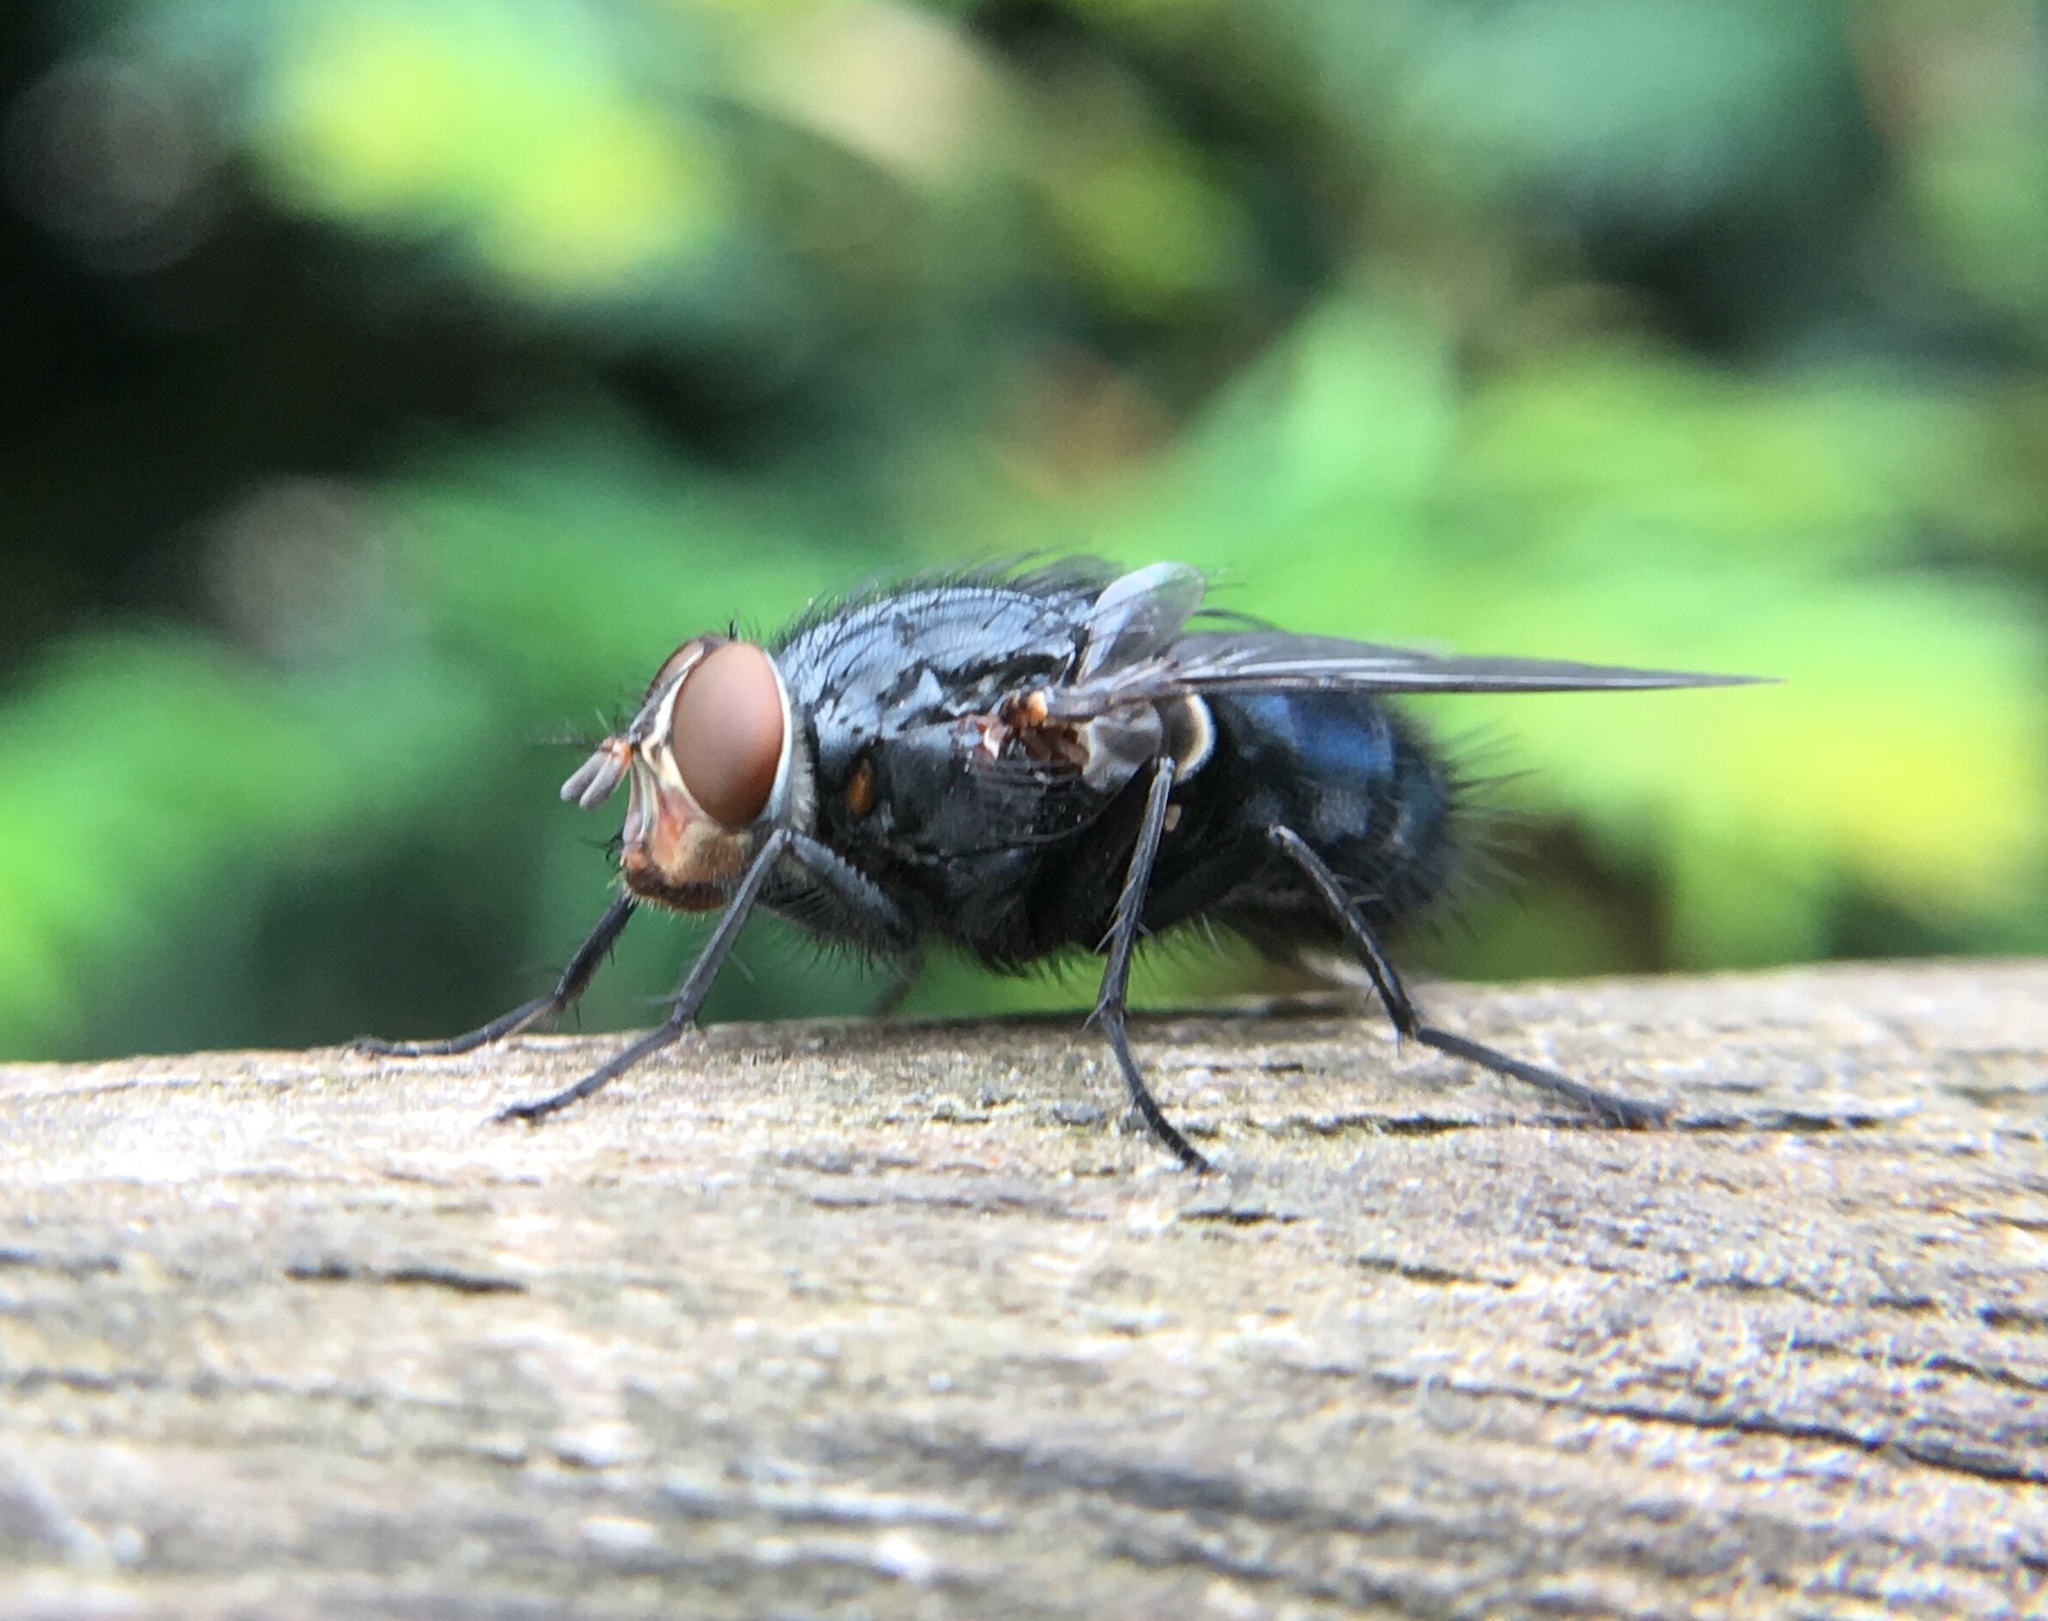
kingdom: Animalia
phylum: Arthropoda
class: Insecta
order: Diptera
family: Calliphoridae
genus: Calliphora
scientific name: Calliphora vicina
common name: Common blow flie
